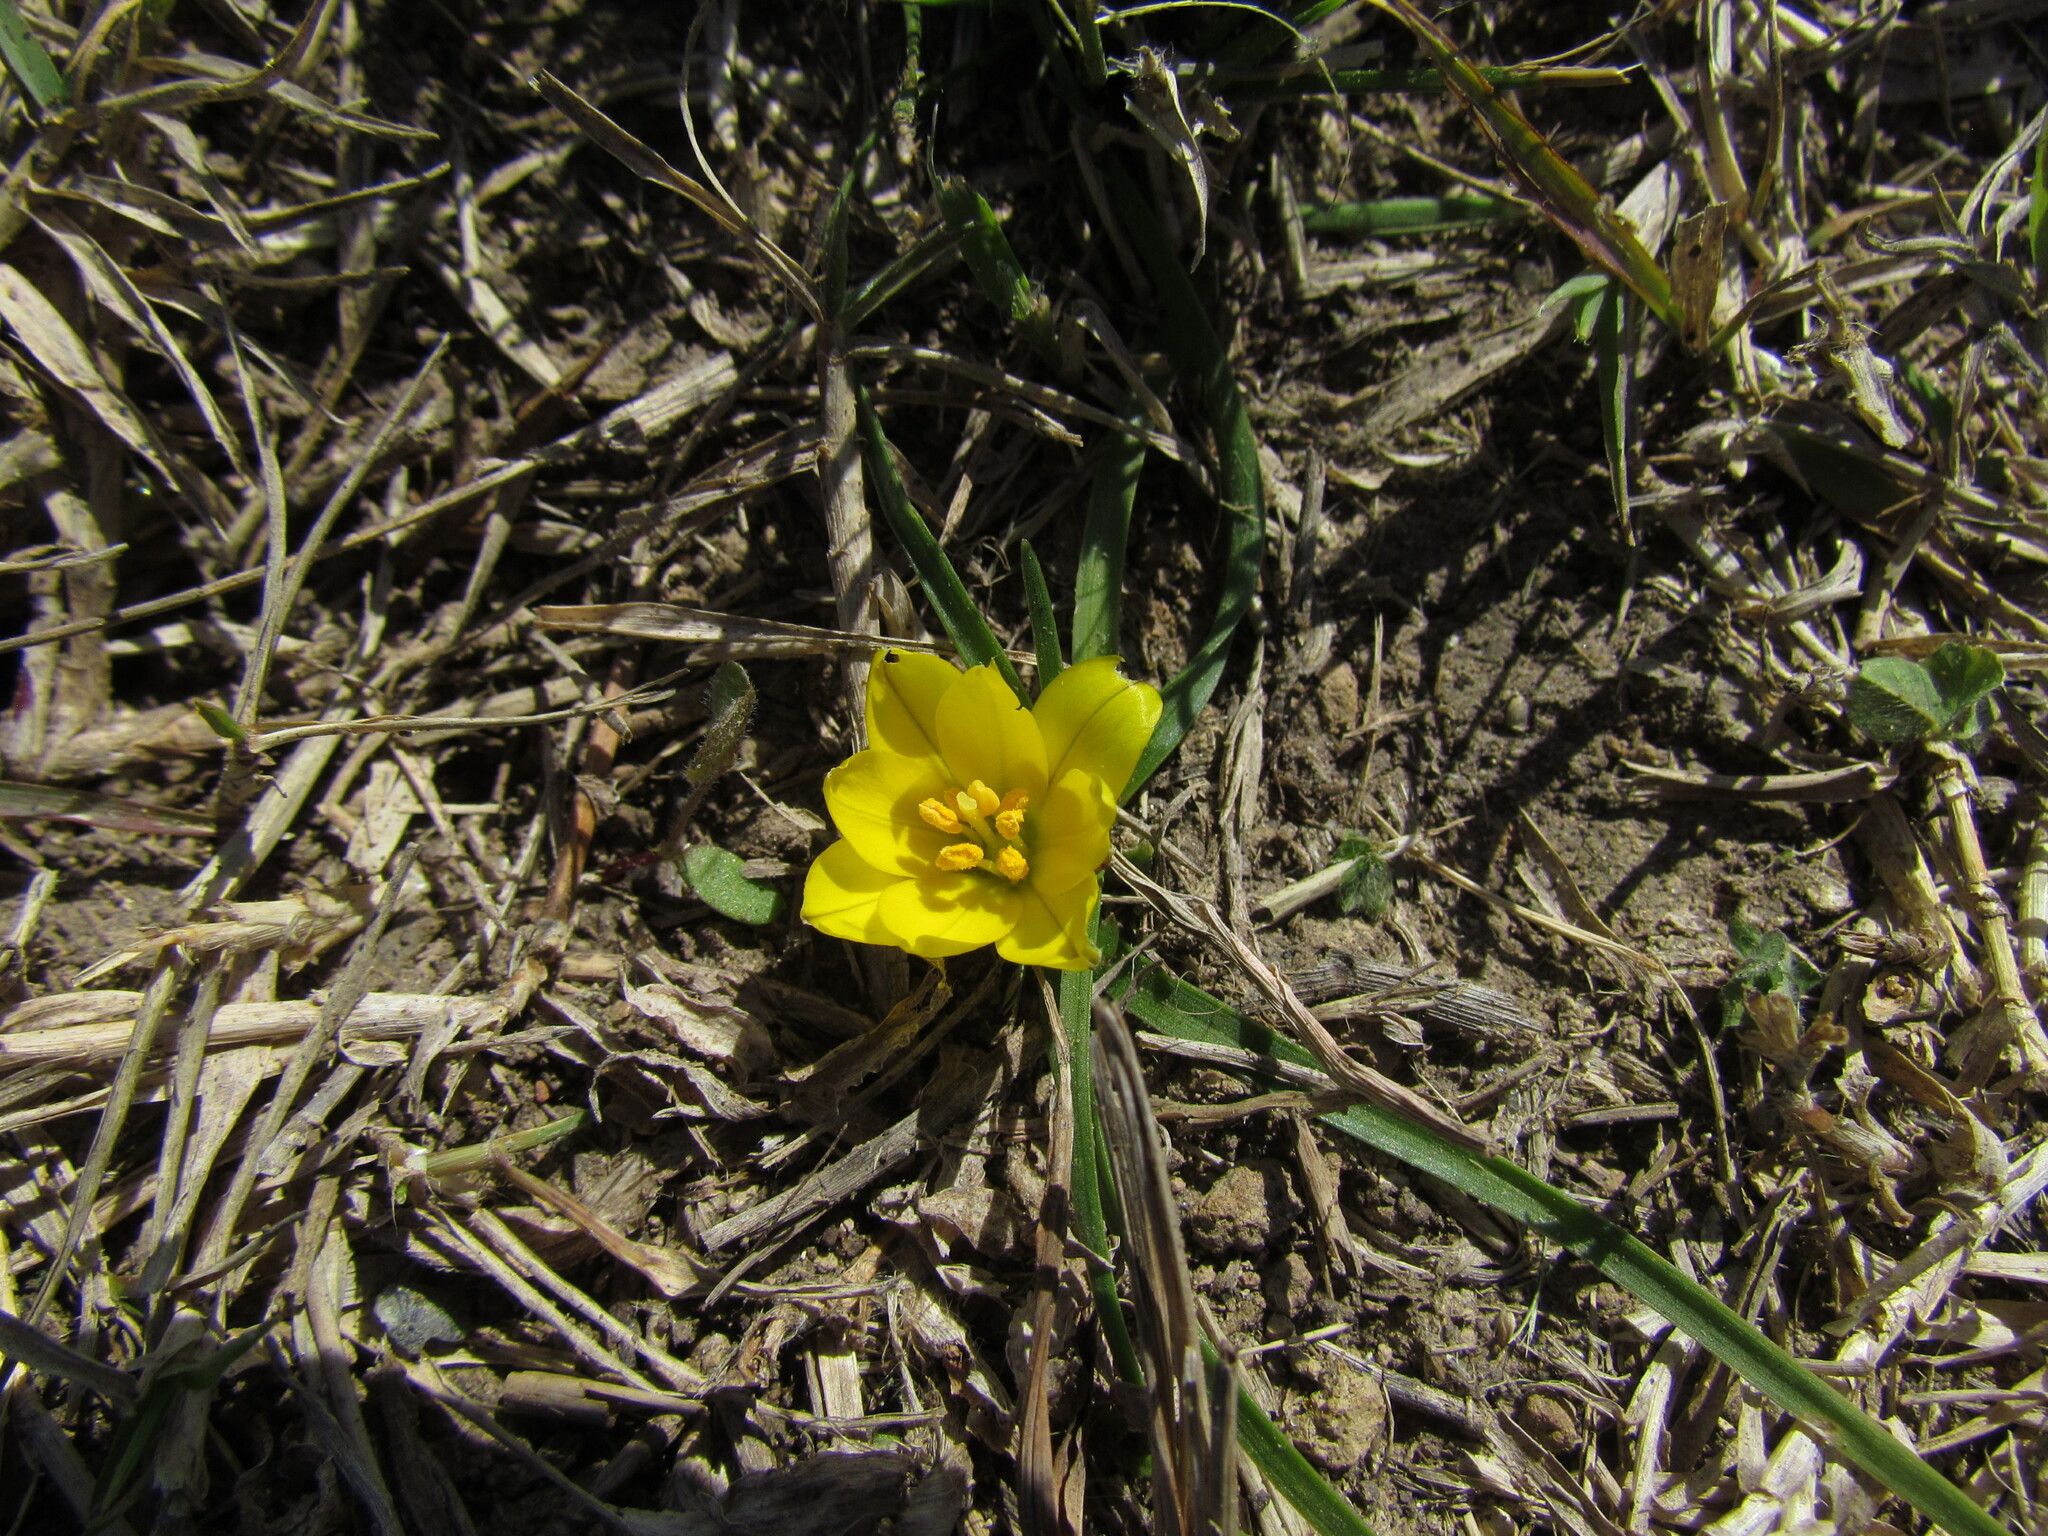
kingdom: Plantae
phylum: Tracheophyta
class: Liliopsida
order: Asparagales
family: Amaryllidaceae
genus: Zephyranthes
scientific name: Zephyranthes filifolia
